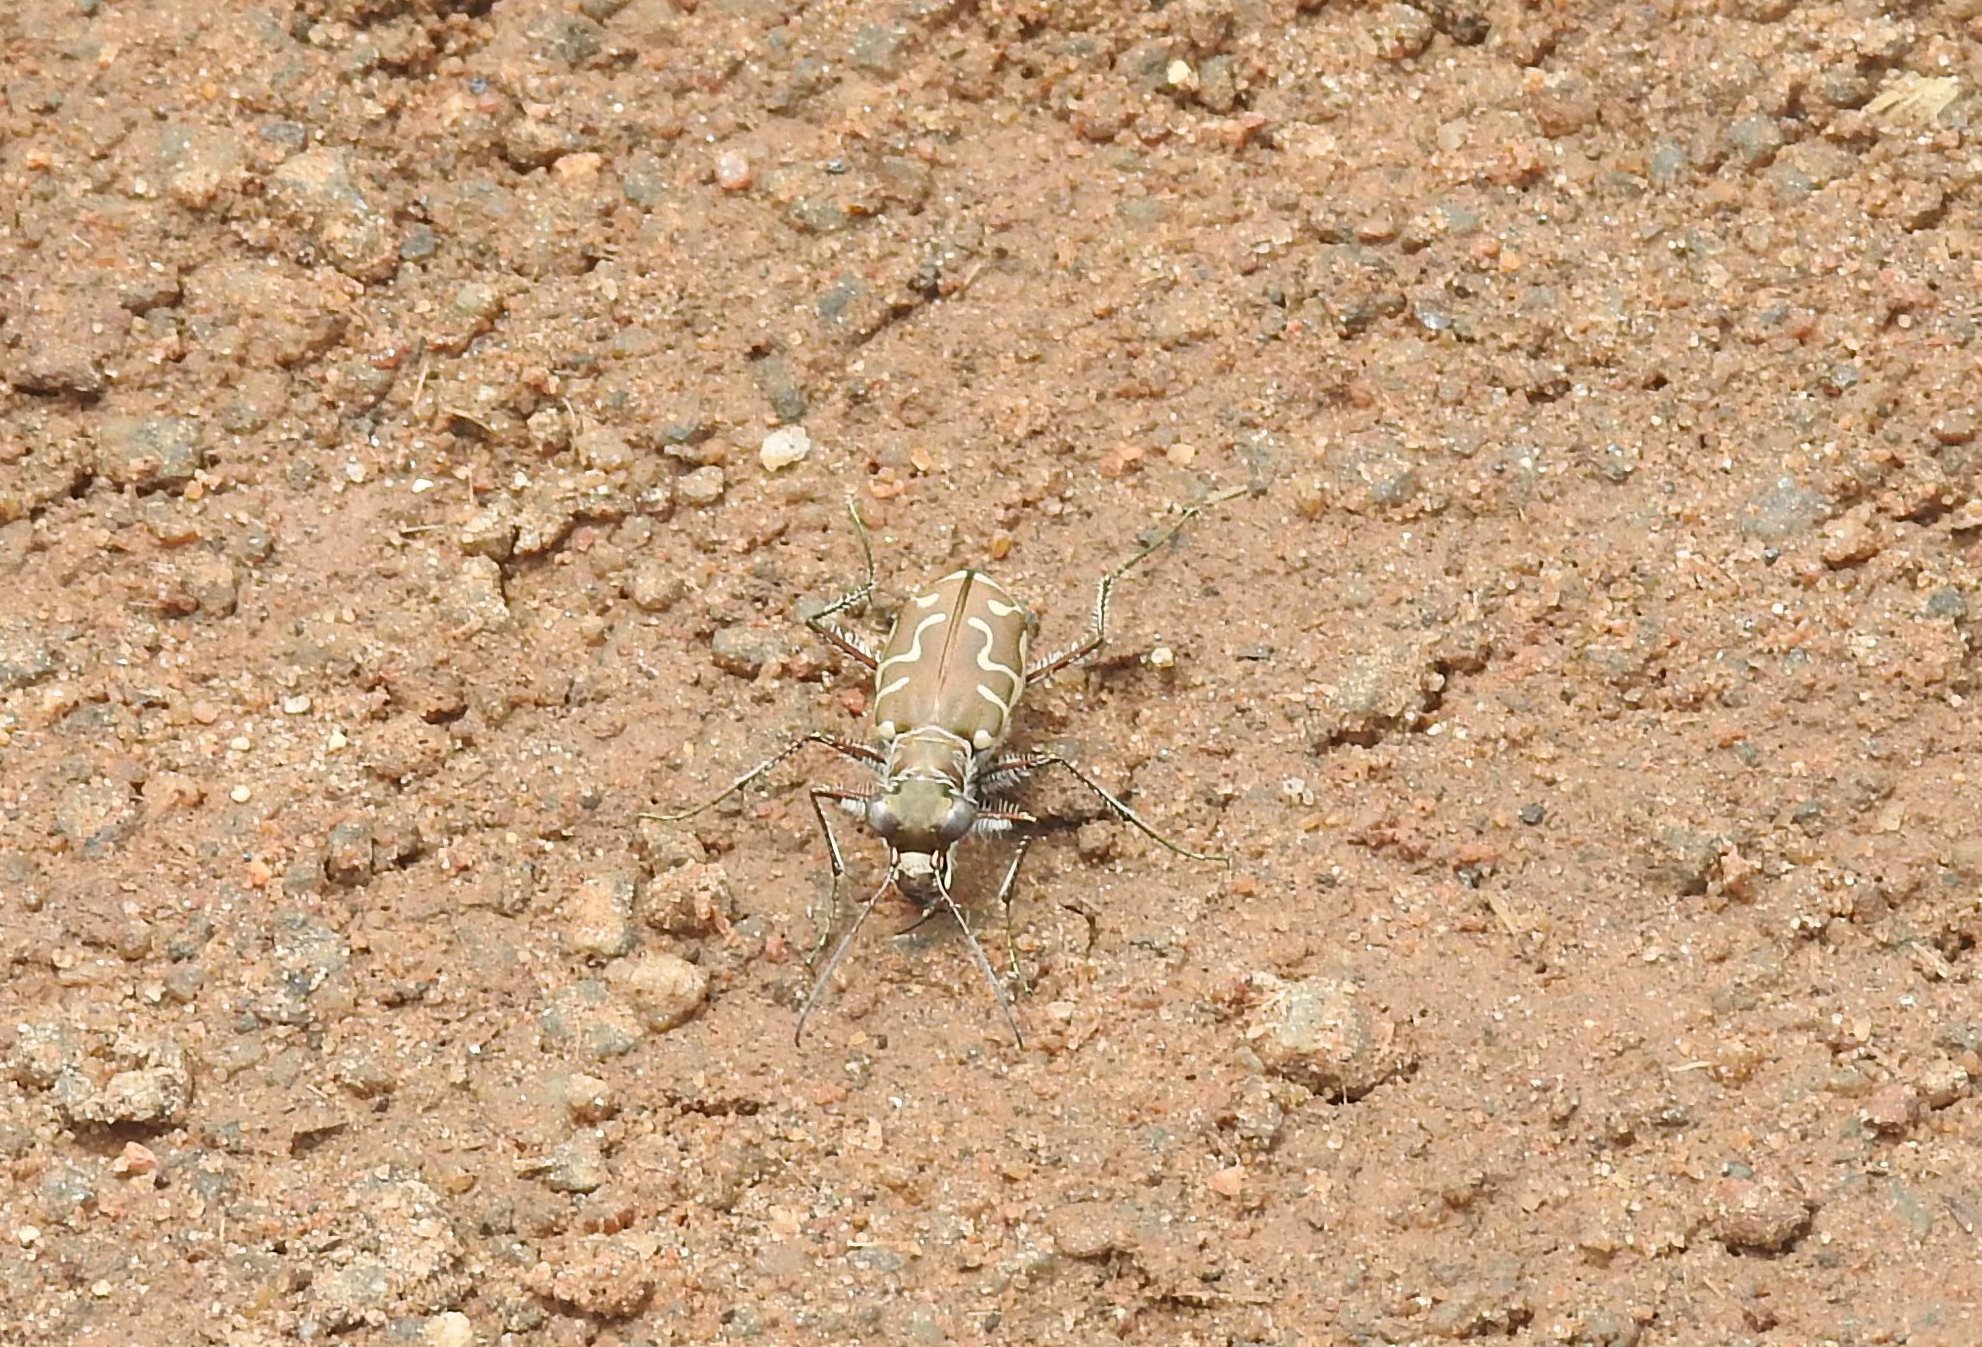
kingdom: Animalia
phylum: Arthropoda
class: Insecta
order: Coleoptera
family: Carabidae
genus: Cicindela
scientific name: Cicindela angulata
